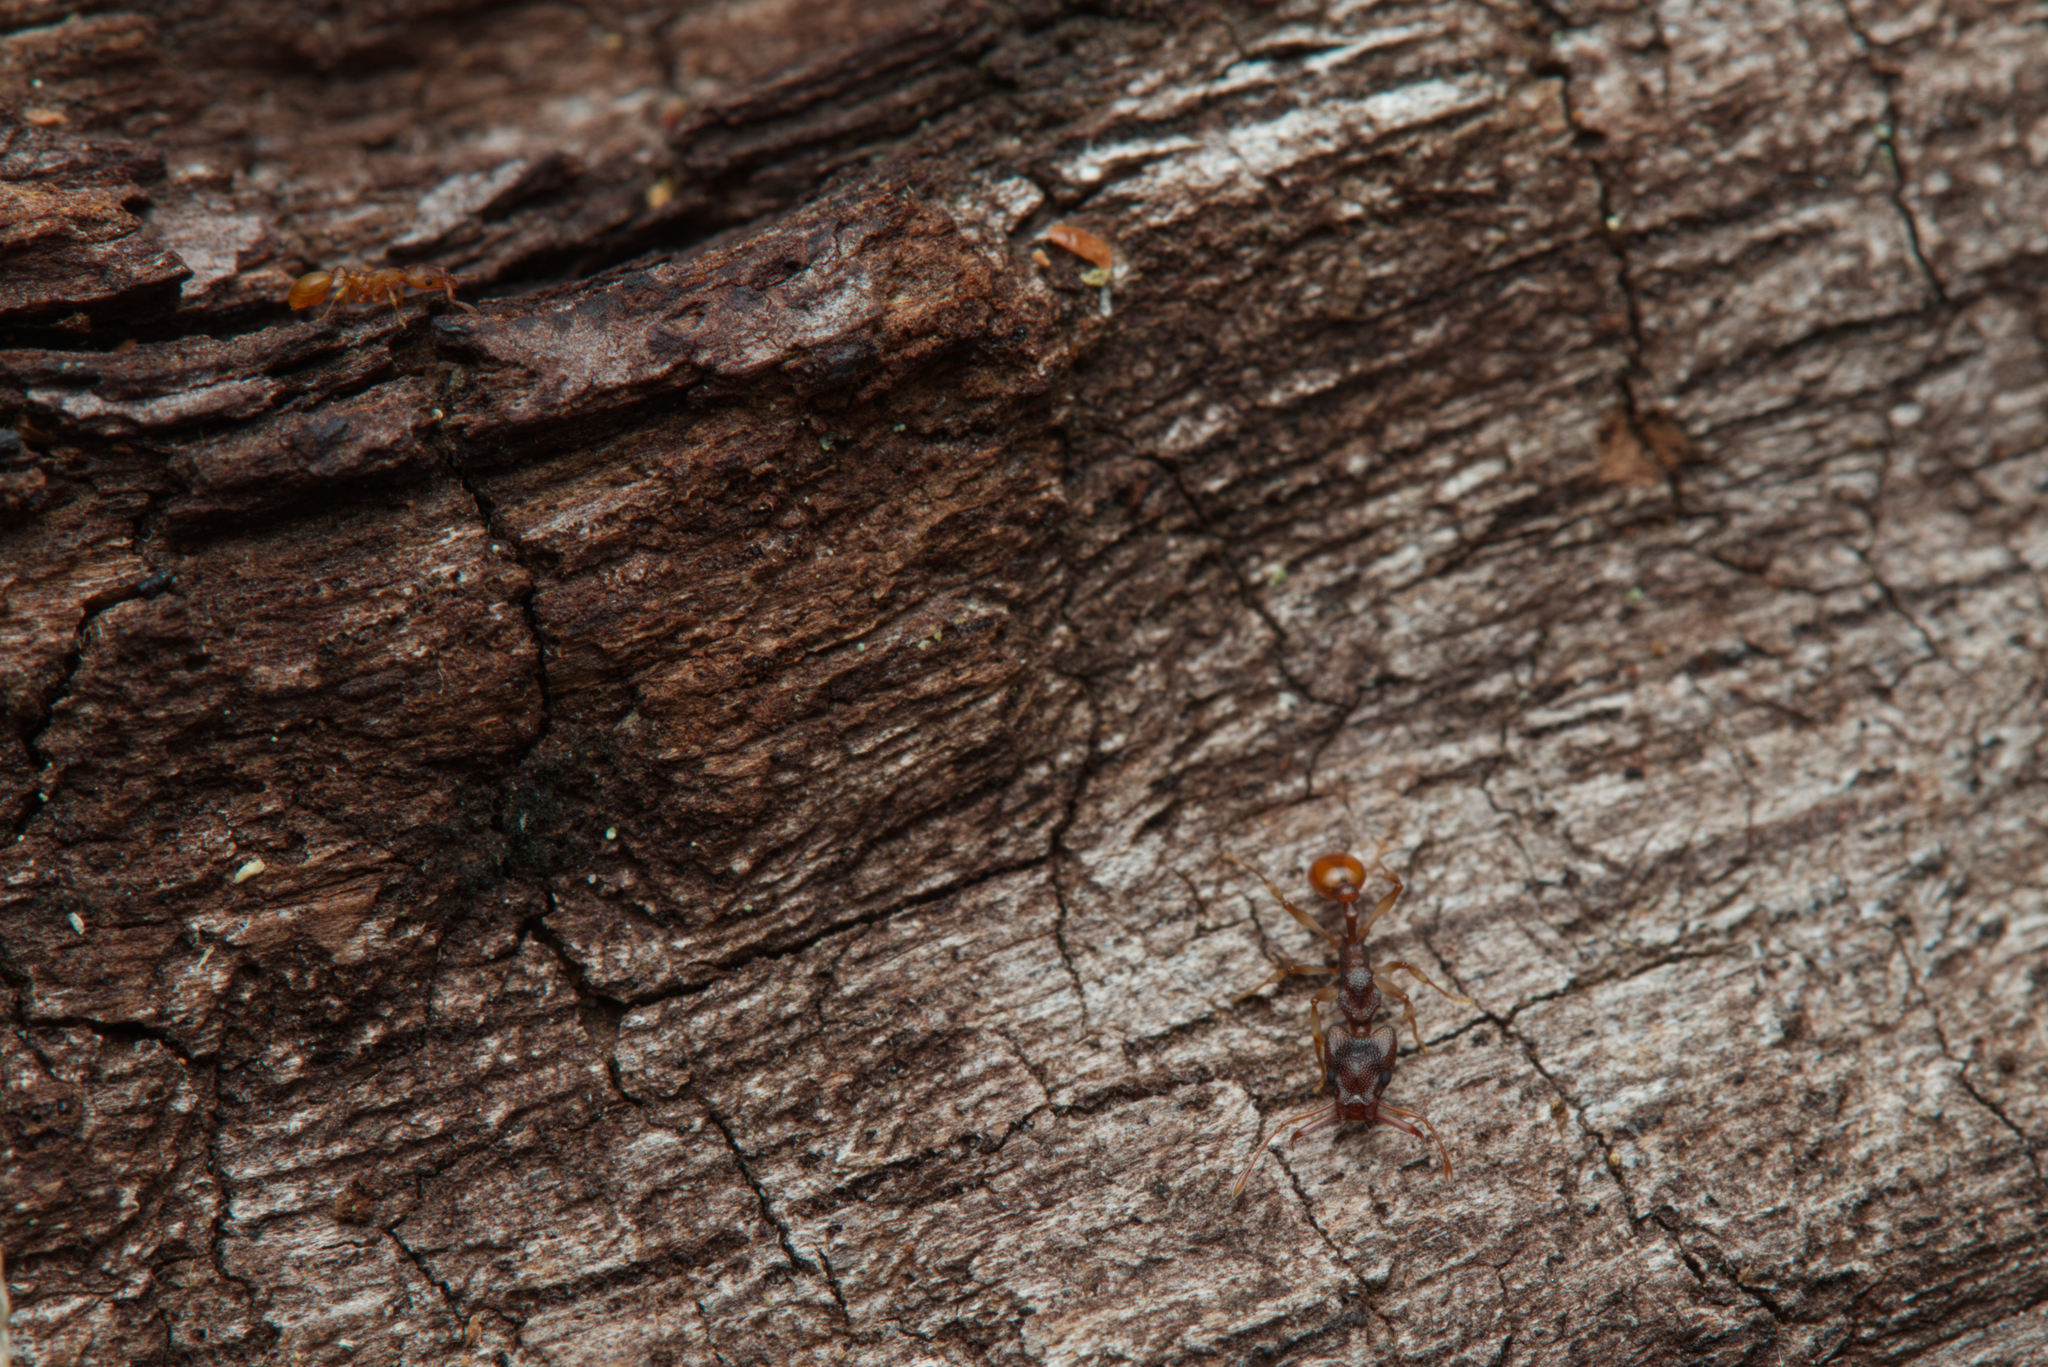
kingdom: Animalia
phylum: Arthropoda
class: Insecta
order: Hymenoptera
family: Formicidae
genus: Orectognathus
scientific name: Orectognathus mjobergi
